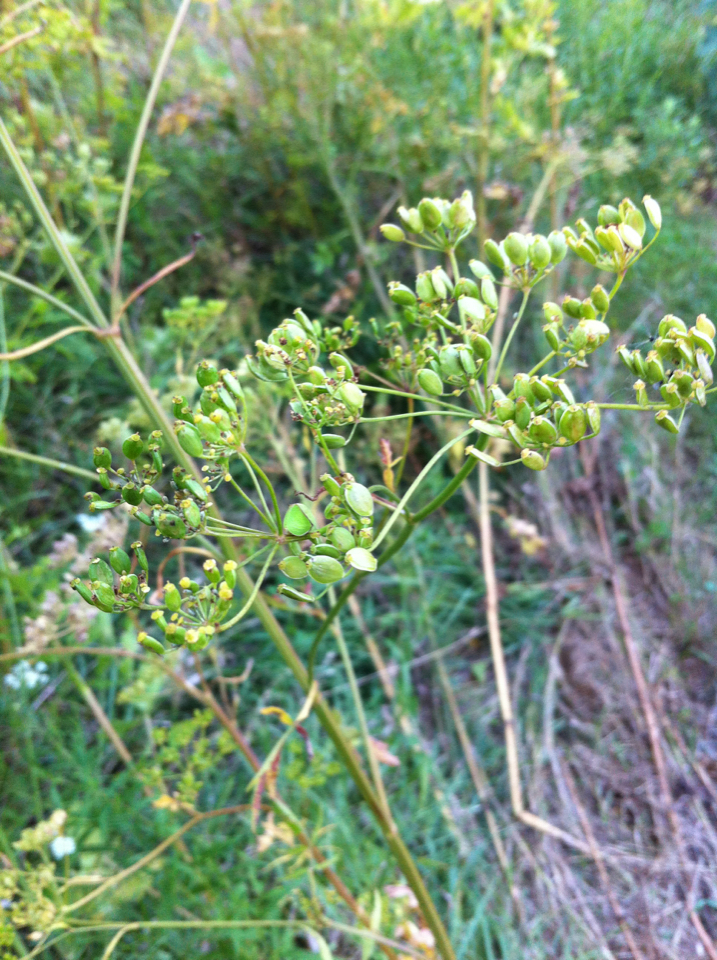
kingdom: Plantae
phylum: Tracheophyta
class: Magnoliopsida
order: Apiales
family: Apiaceae
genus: Pastinaca
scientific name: Pastinaca sativa
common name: Wild parsnip
